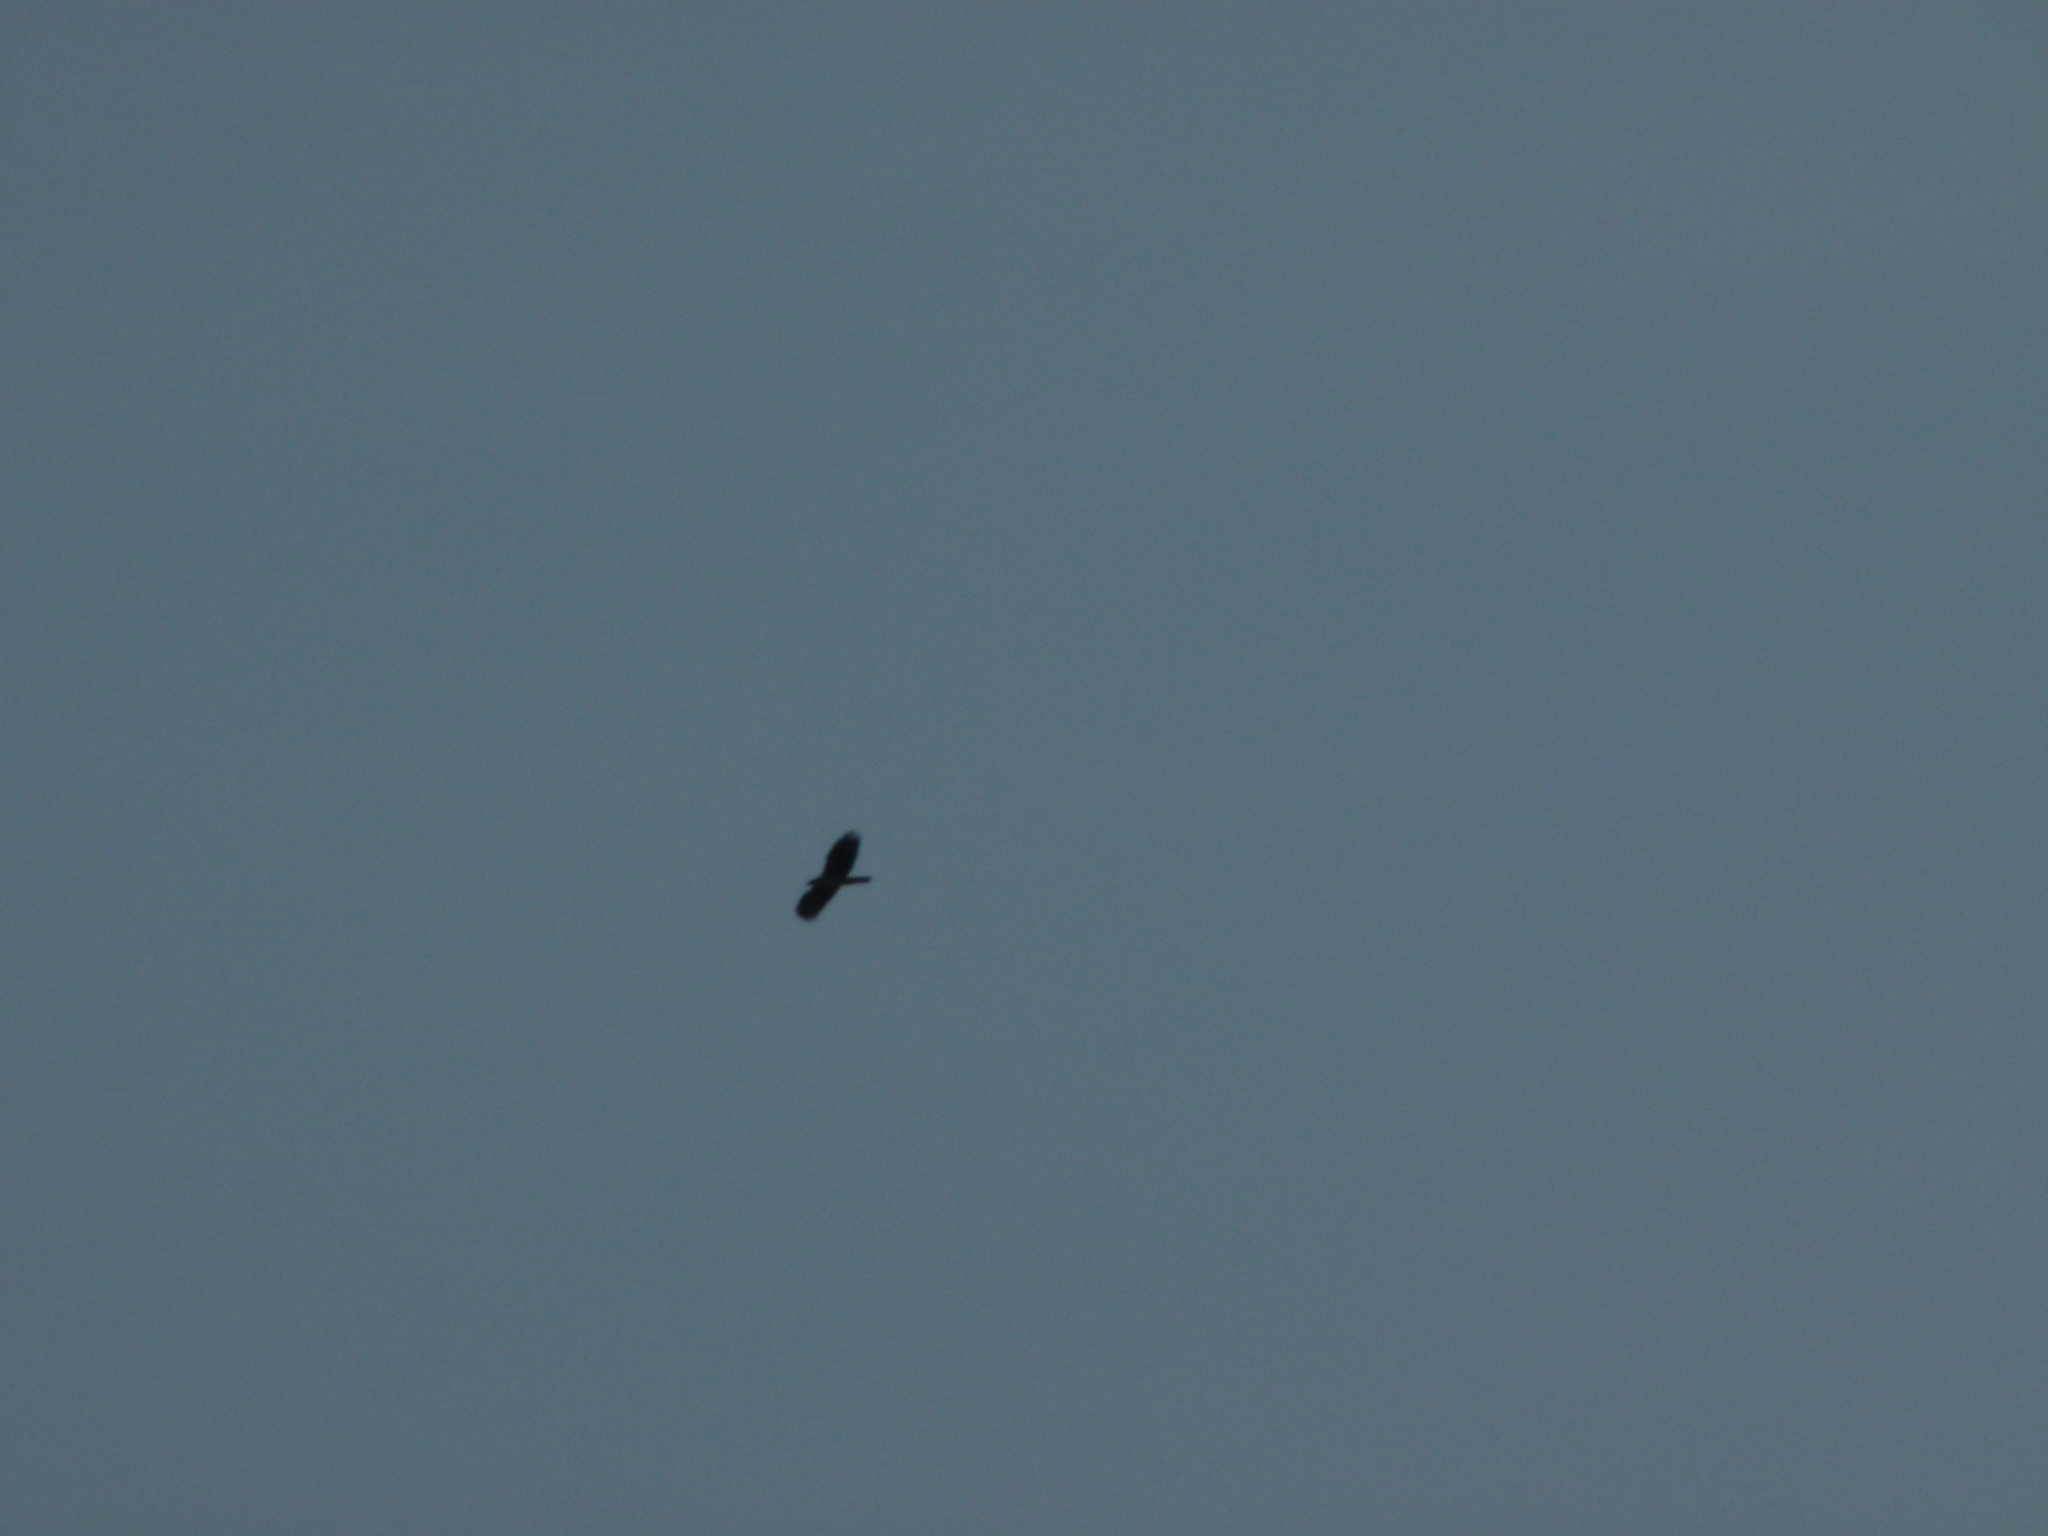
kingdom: Animalia
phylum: Chordata
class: Aves
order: Accipitriformes
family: Accipitridae
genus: Aquila
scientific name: Aquila fasciata
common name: Bonelli's eagle
